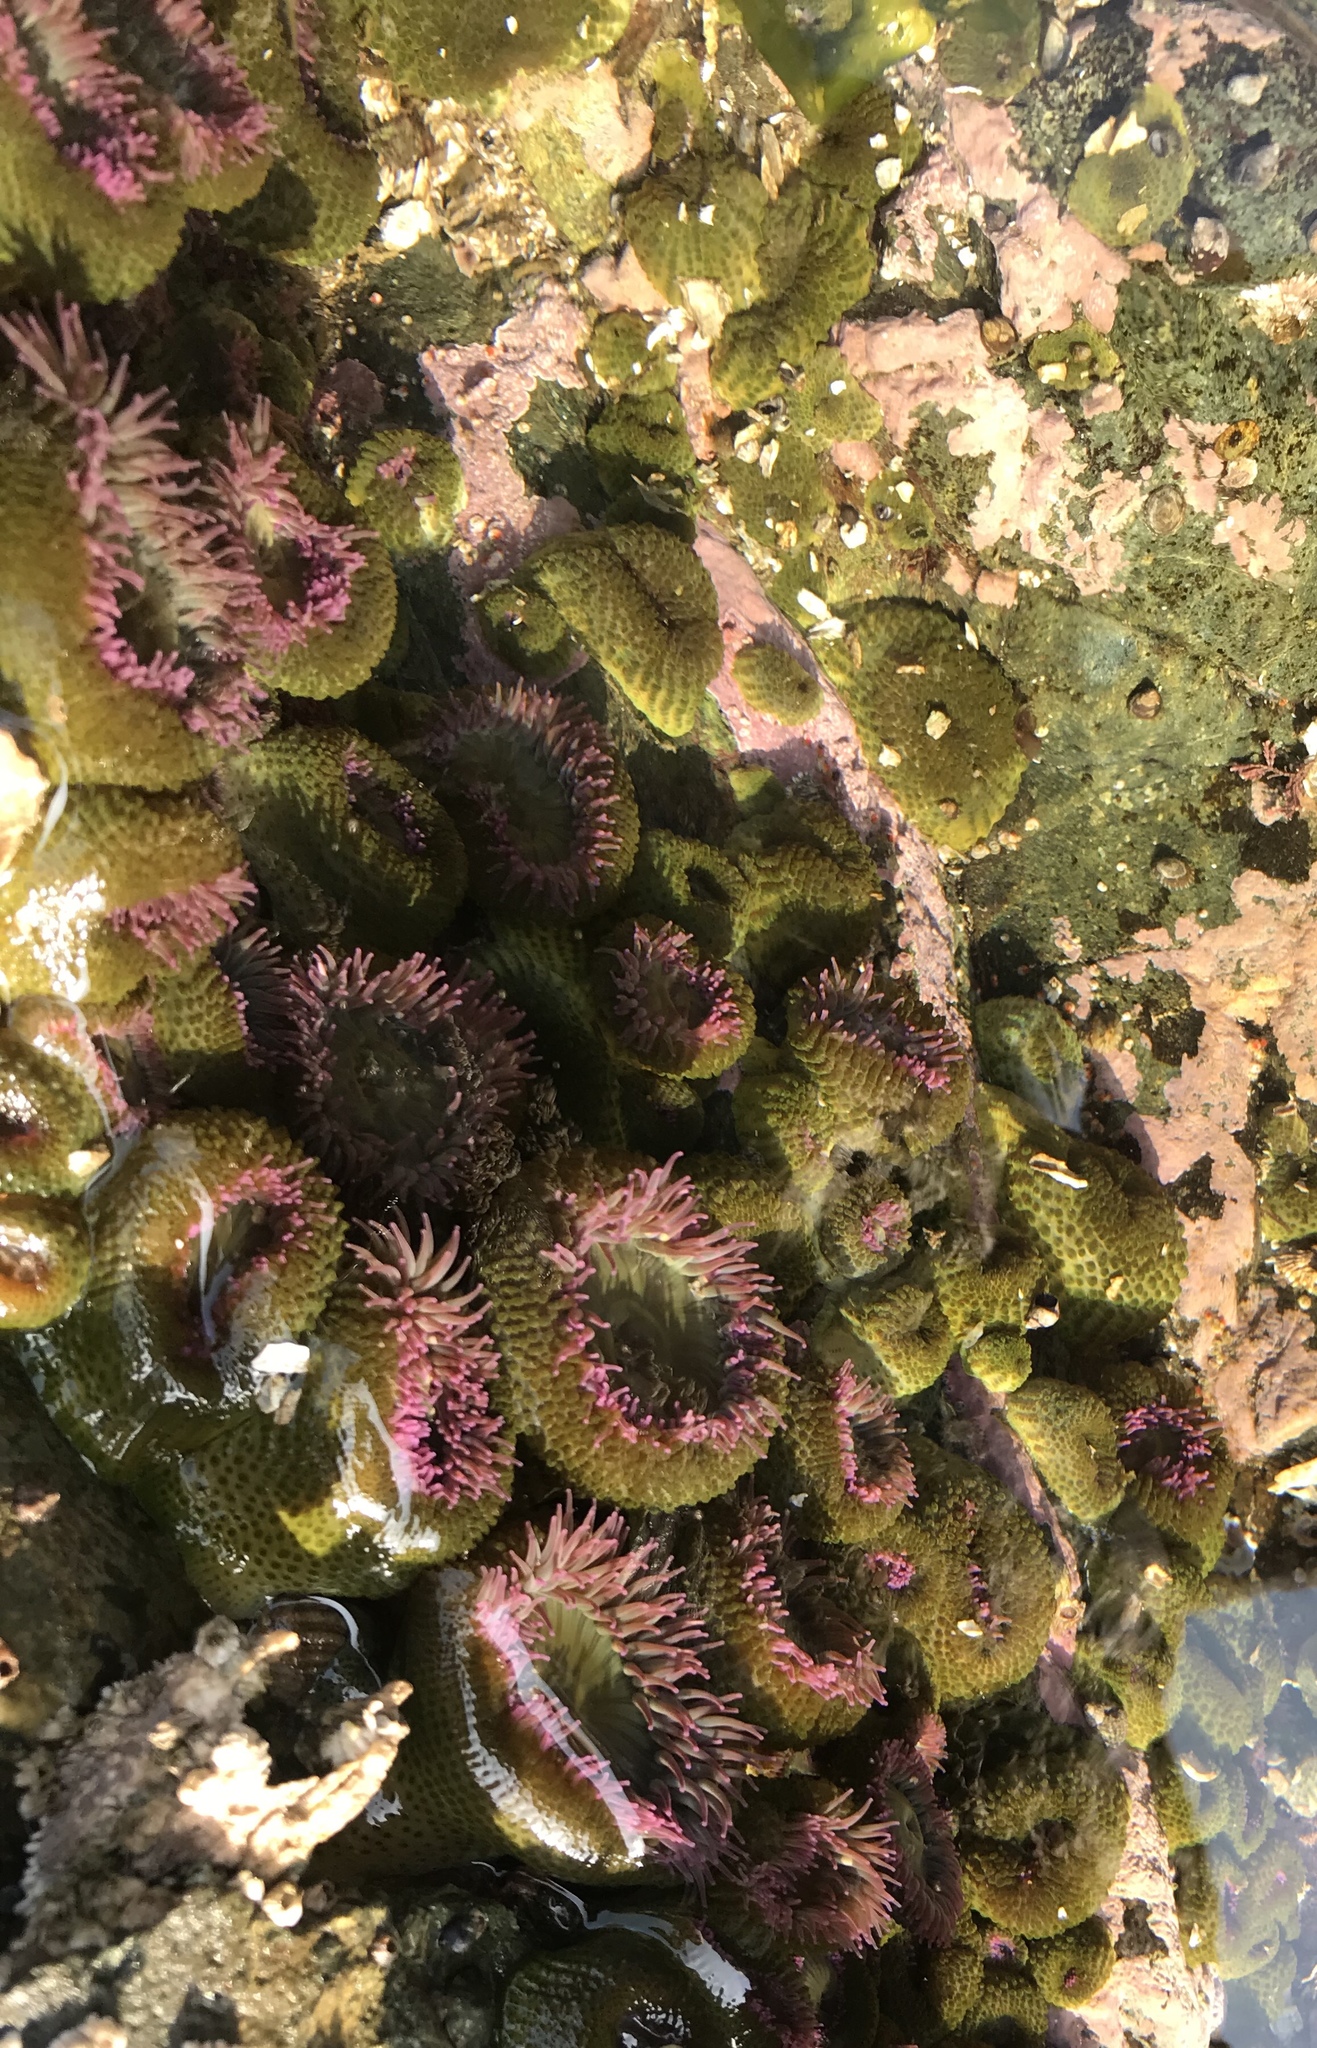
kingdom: Animalia
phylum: Cnidaria
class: Anthozoa
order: Actiniaria
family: Actiniidae
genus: Anthopleura
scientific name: Anthopleura elegantissima
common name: Clonal anemone
